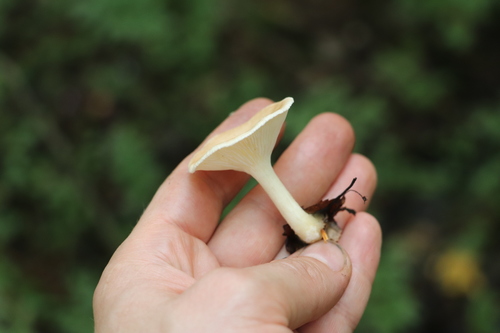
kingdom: Fungi
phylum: Basidiomycota
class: Agaricomycetes
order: Agaricales
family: Tricholomataceae
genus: Infundibulicybe
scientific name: Infundibulicybe gibba
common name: Common funnel
